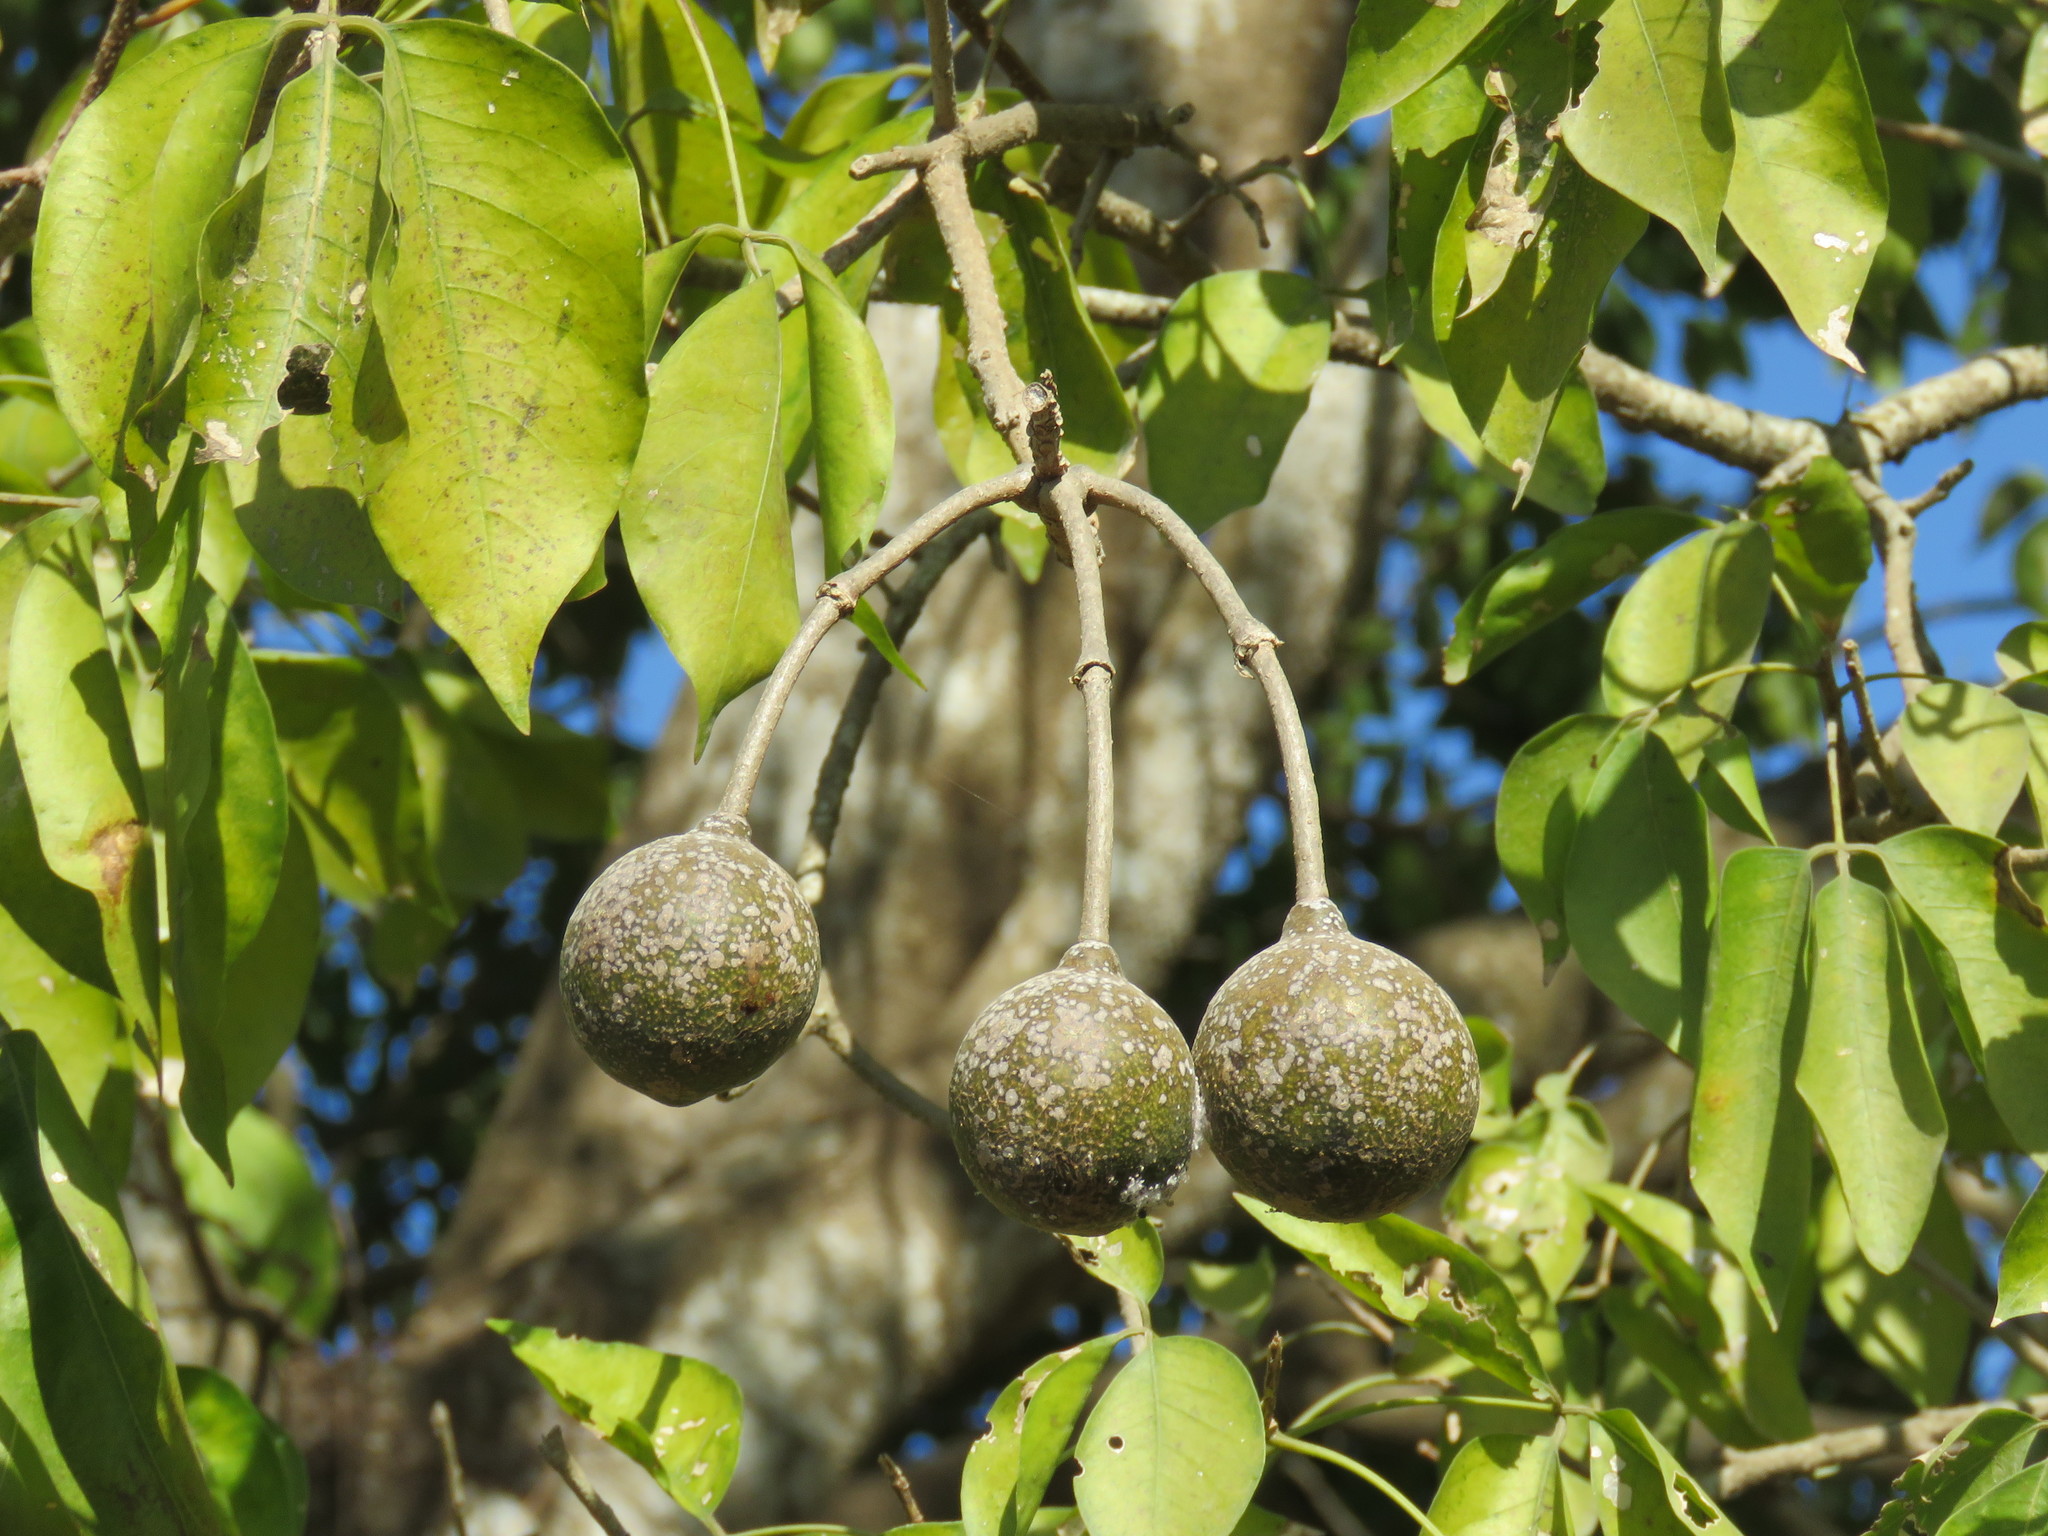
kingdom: Plantae
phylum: Tracheophyta
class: Magnoliopsida
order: Brassicales
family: Capparaceae
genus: Crateva
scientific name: Crateva tapia
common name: Garlic-pear
